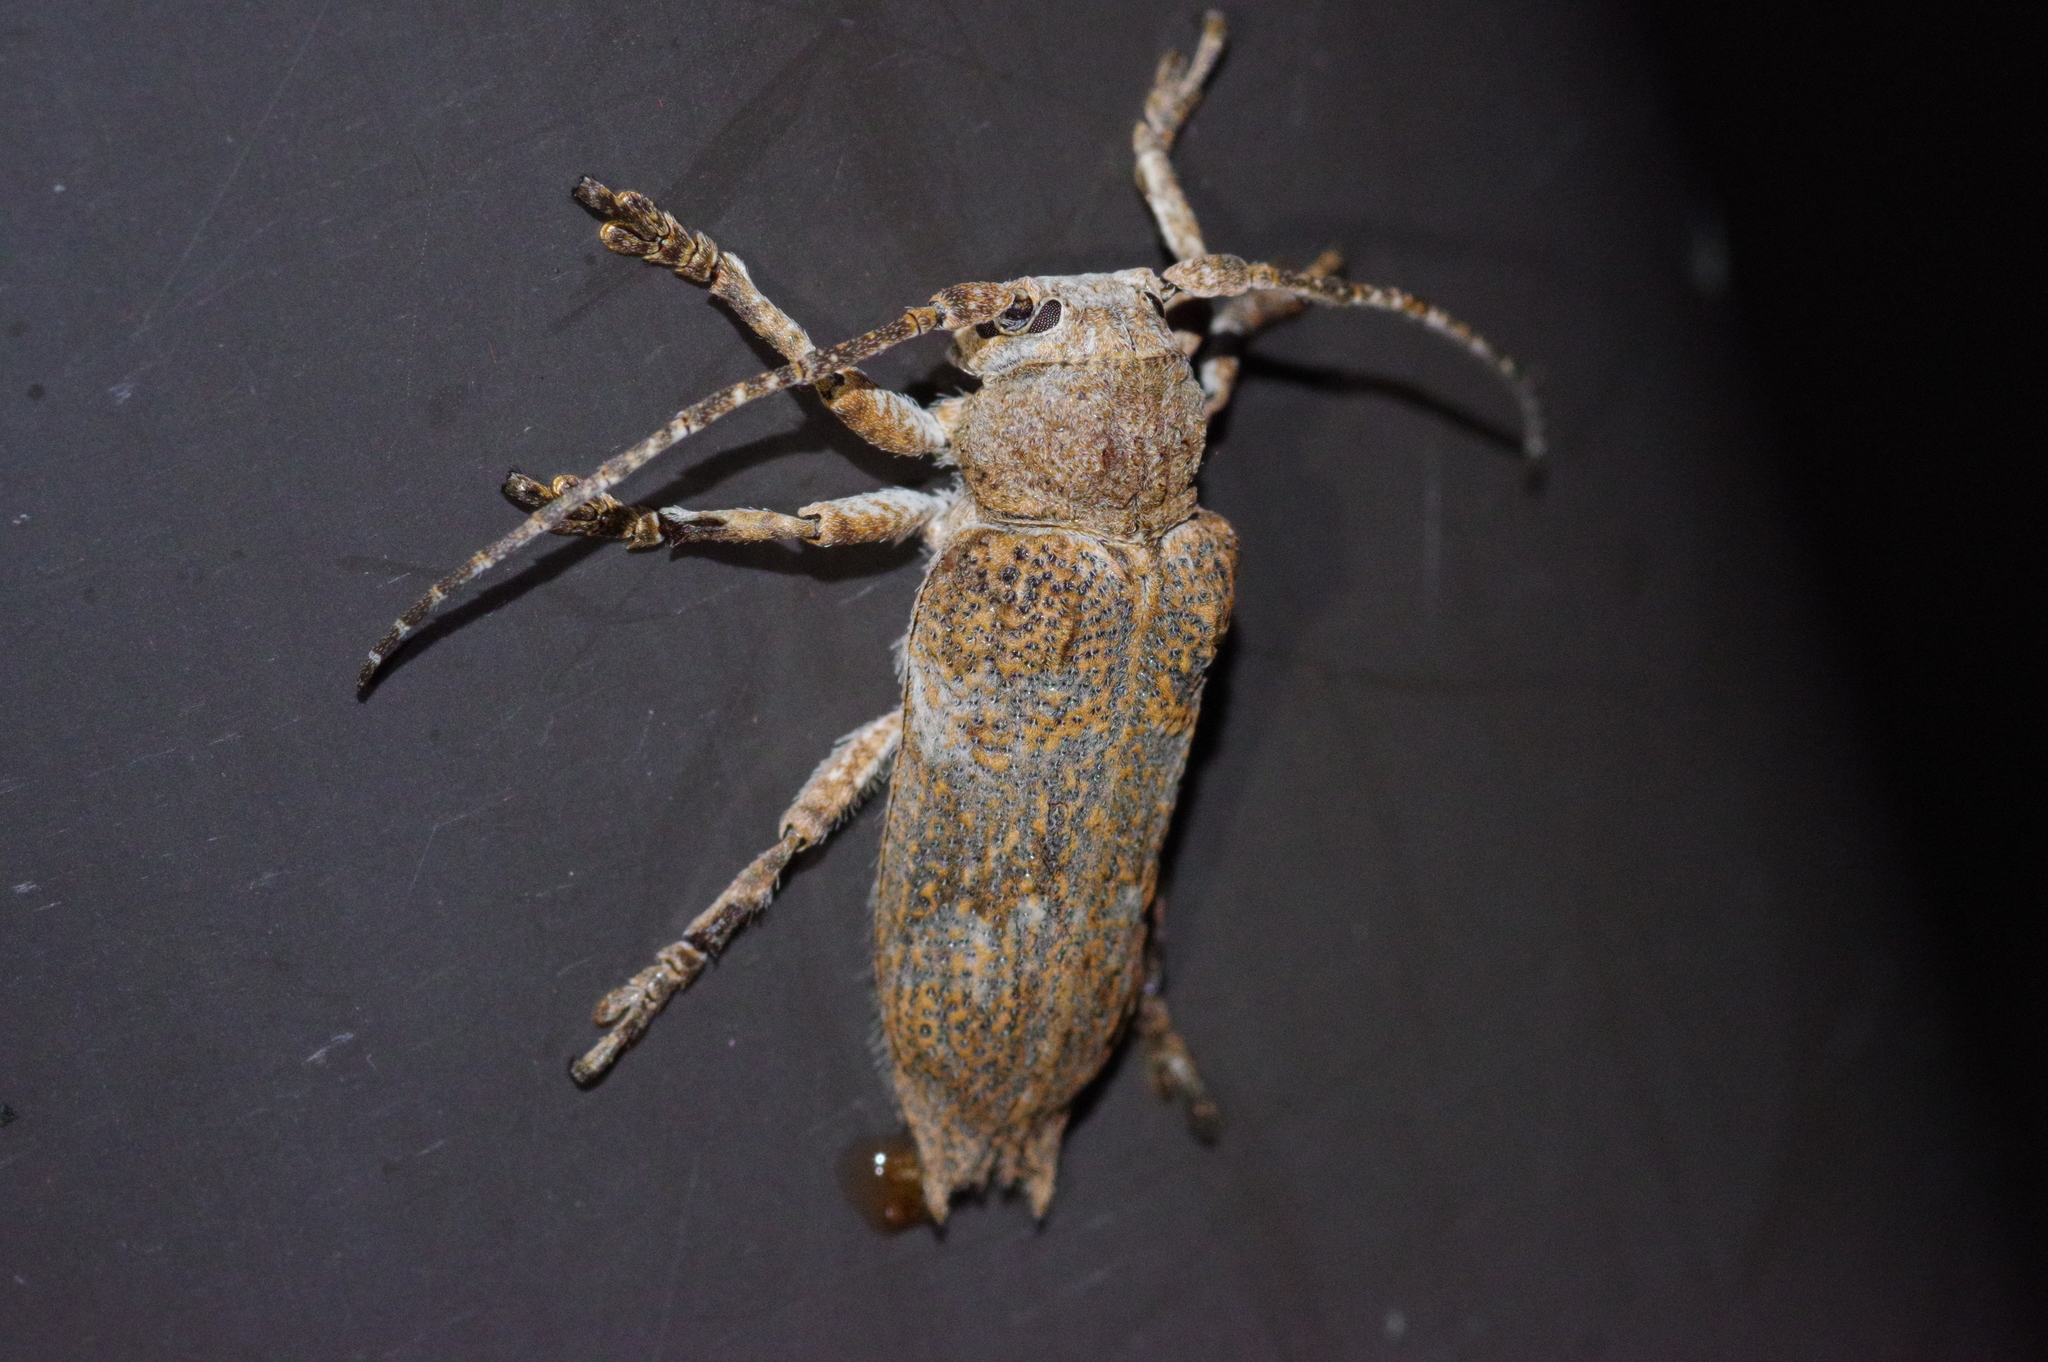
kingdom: Animalia
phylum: Arthropoda
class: Insecta
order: Coleoptera
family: Cerambycidae
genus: Niphona
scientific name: Niphona yanoi
